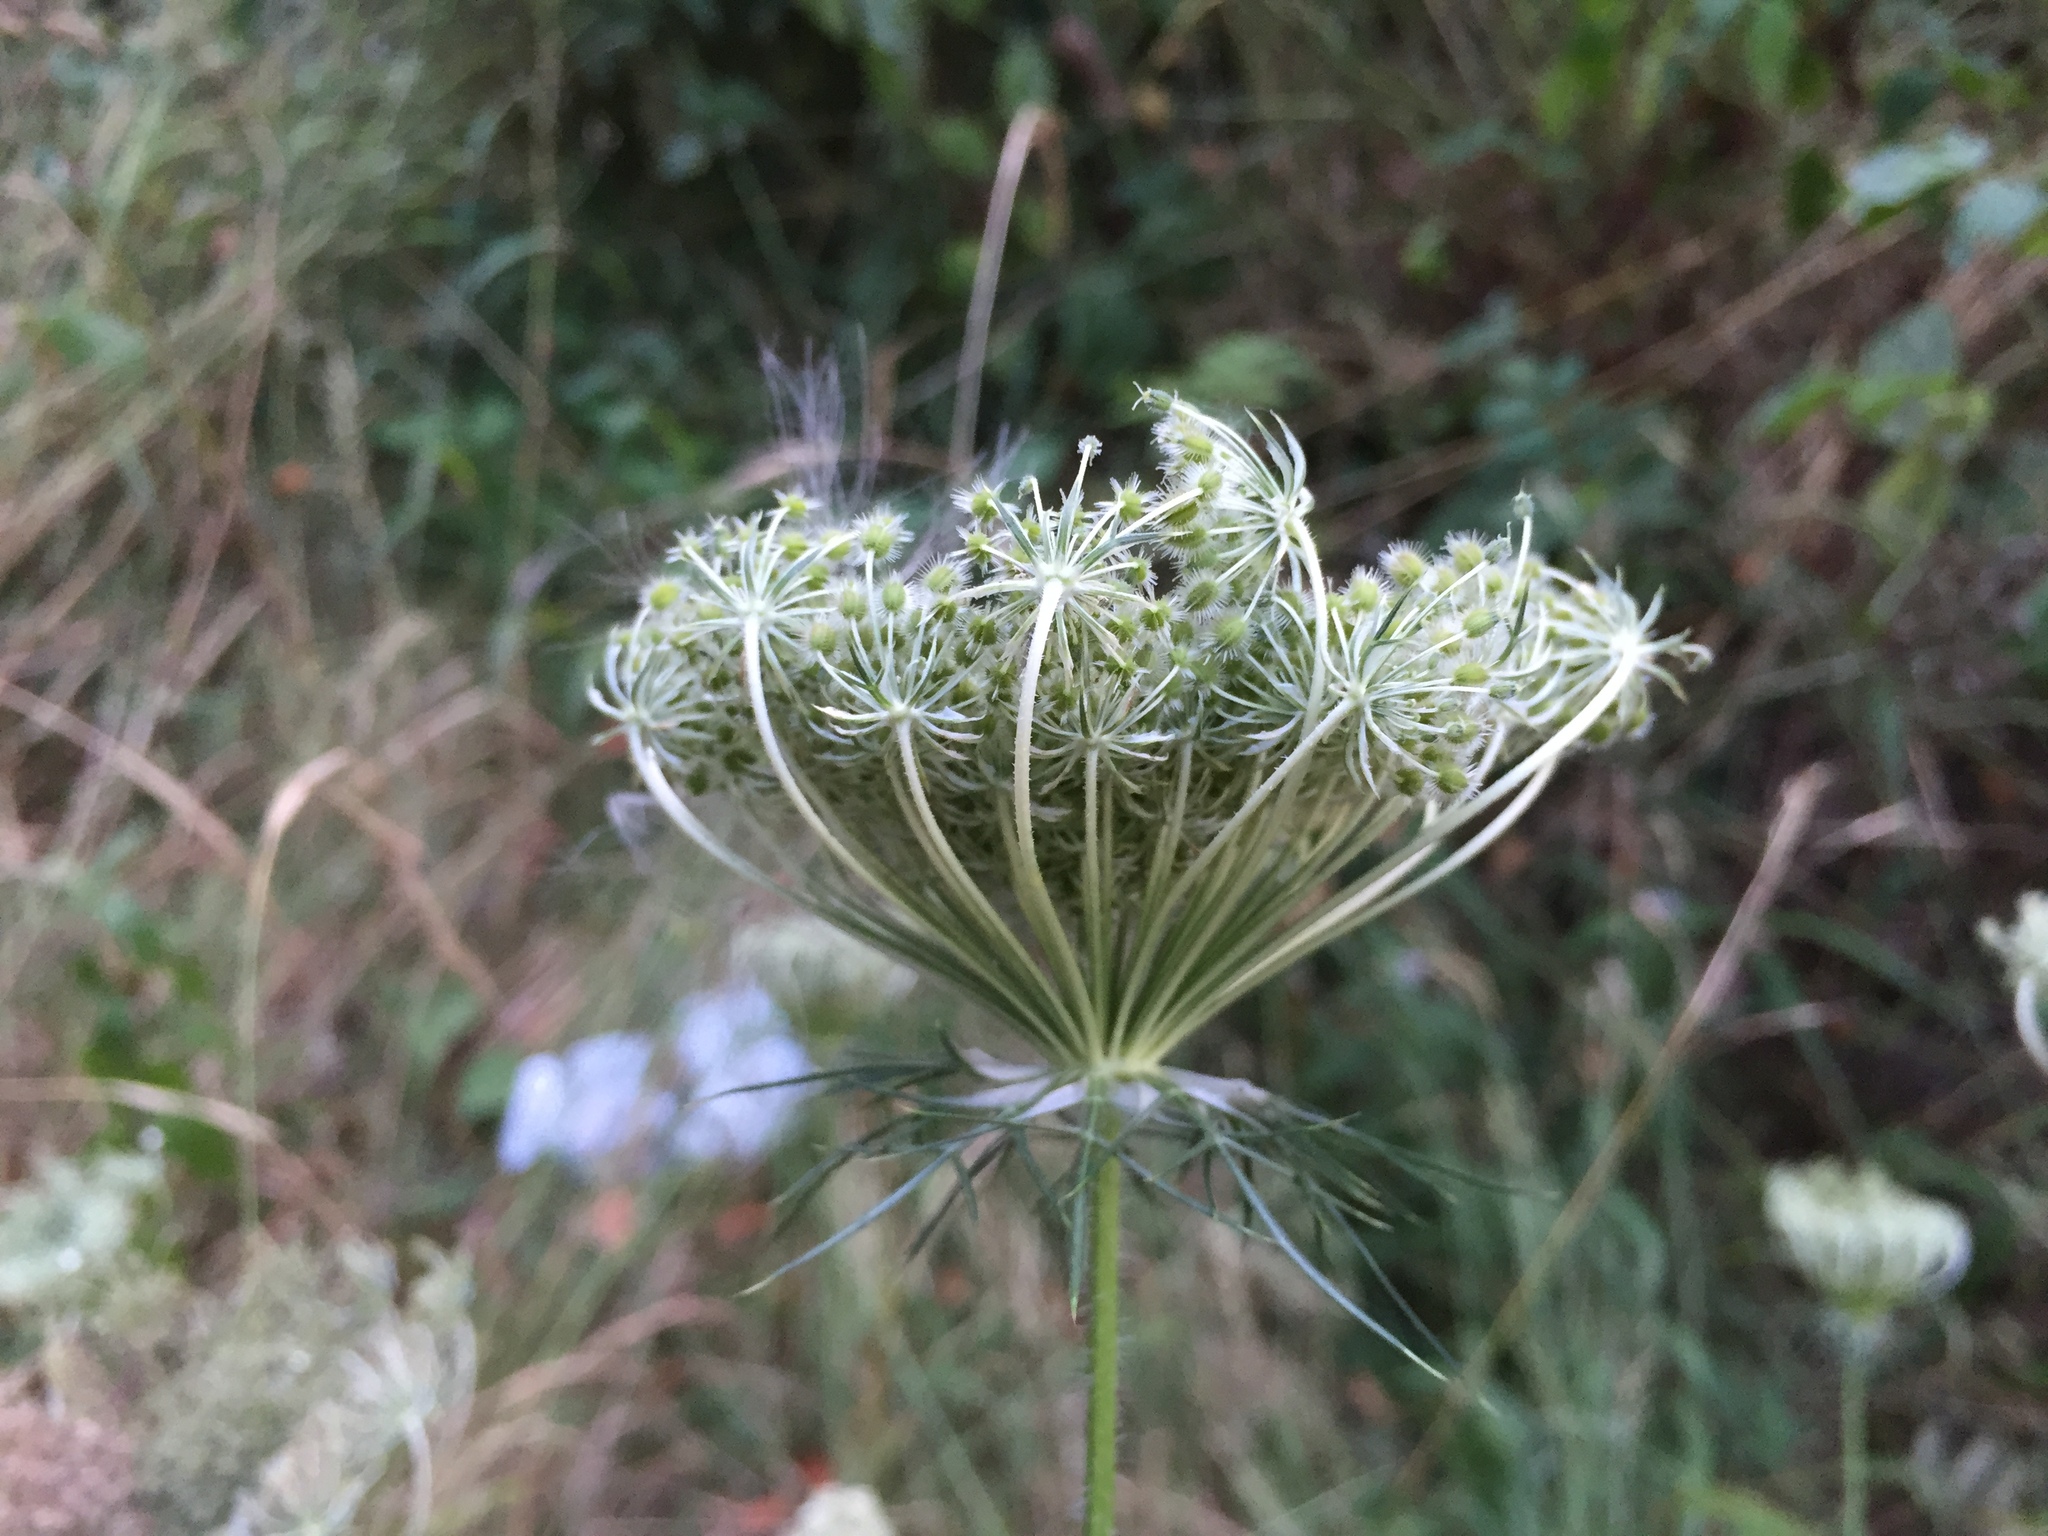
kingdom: Plantae
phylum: Tracheophyta
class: Magnoliopsida
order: Apiales
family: Apiaceae
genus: Daucus
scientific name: Daucus carota
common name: Wild carrot
